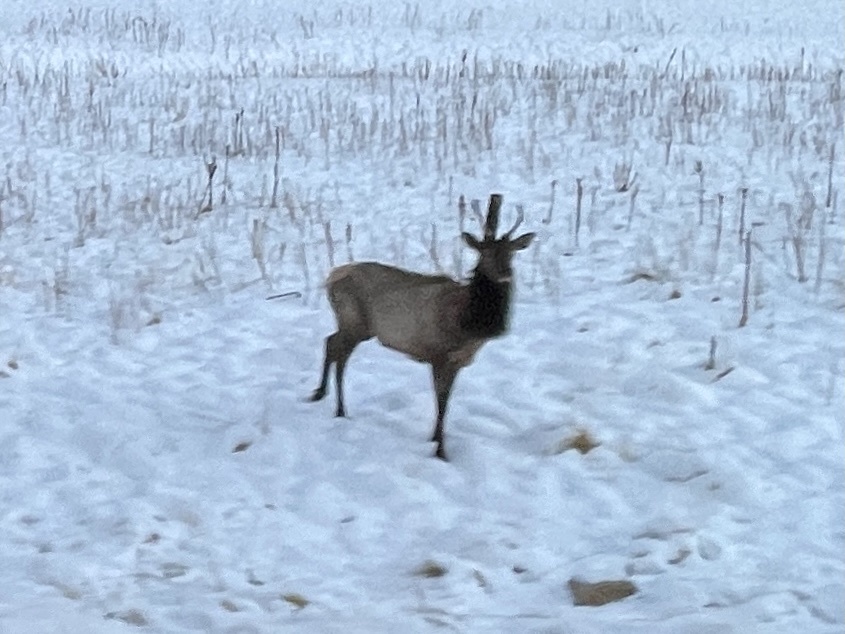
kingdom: Animalia
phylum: Chordata
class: Mammalia
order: Artiodactyla
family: Cervidae
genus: Cervus
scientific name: Cervus elaphus
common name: Red deer
